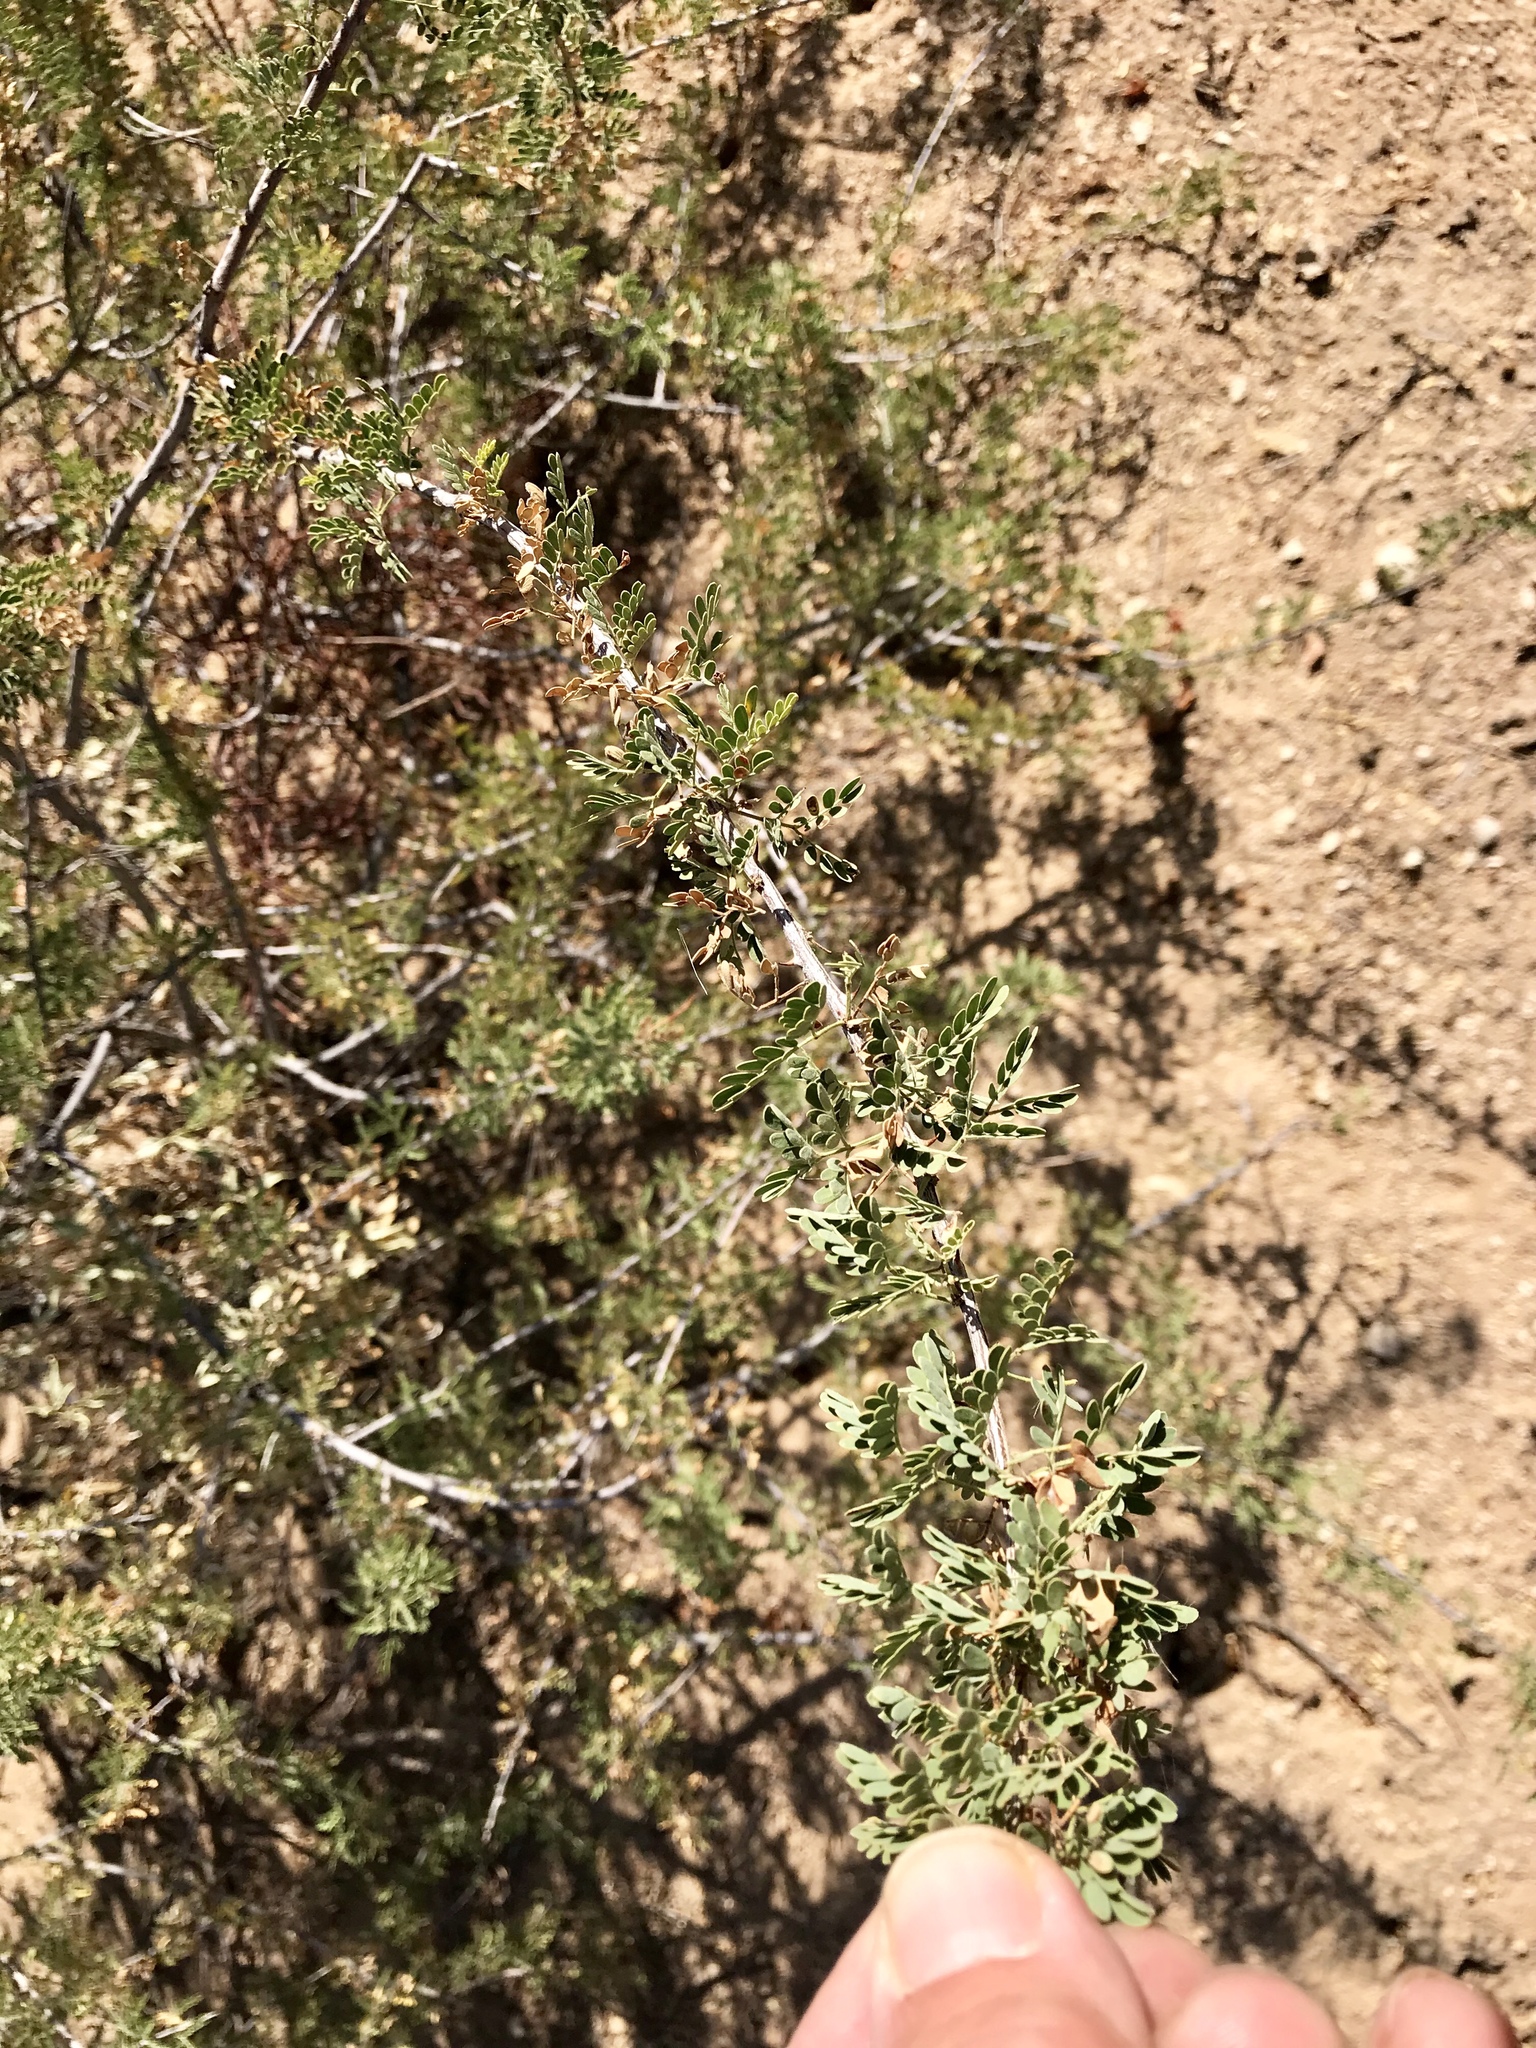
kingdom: Plantae
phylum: Tracheophyta
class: Magnoliopsida
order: Fabales
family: Fabaceae
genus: Senegalia
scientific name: Senegalia greggii
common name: Texas-mimosa
